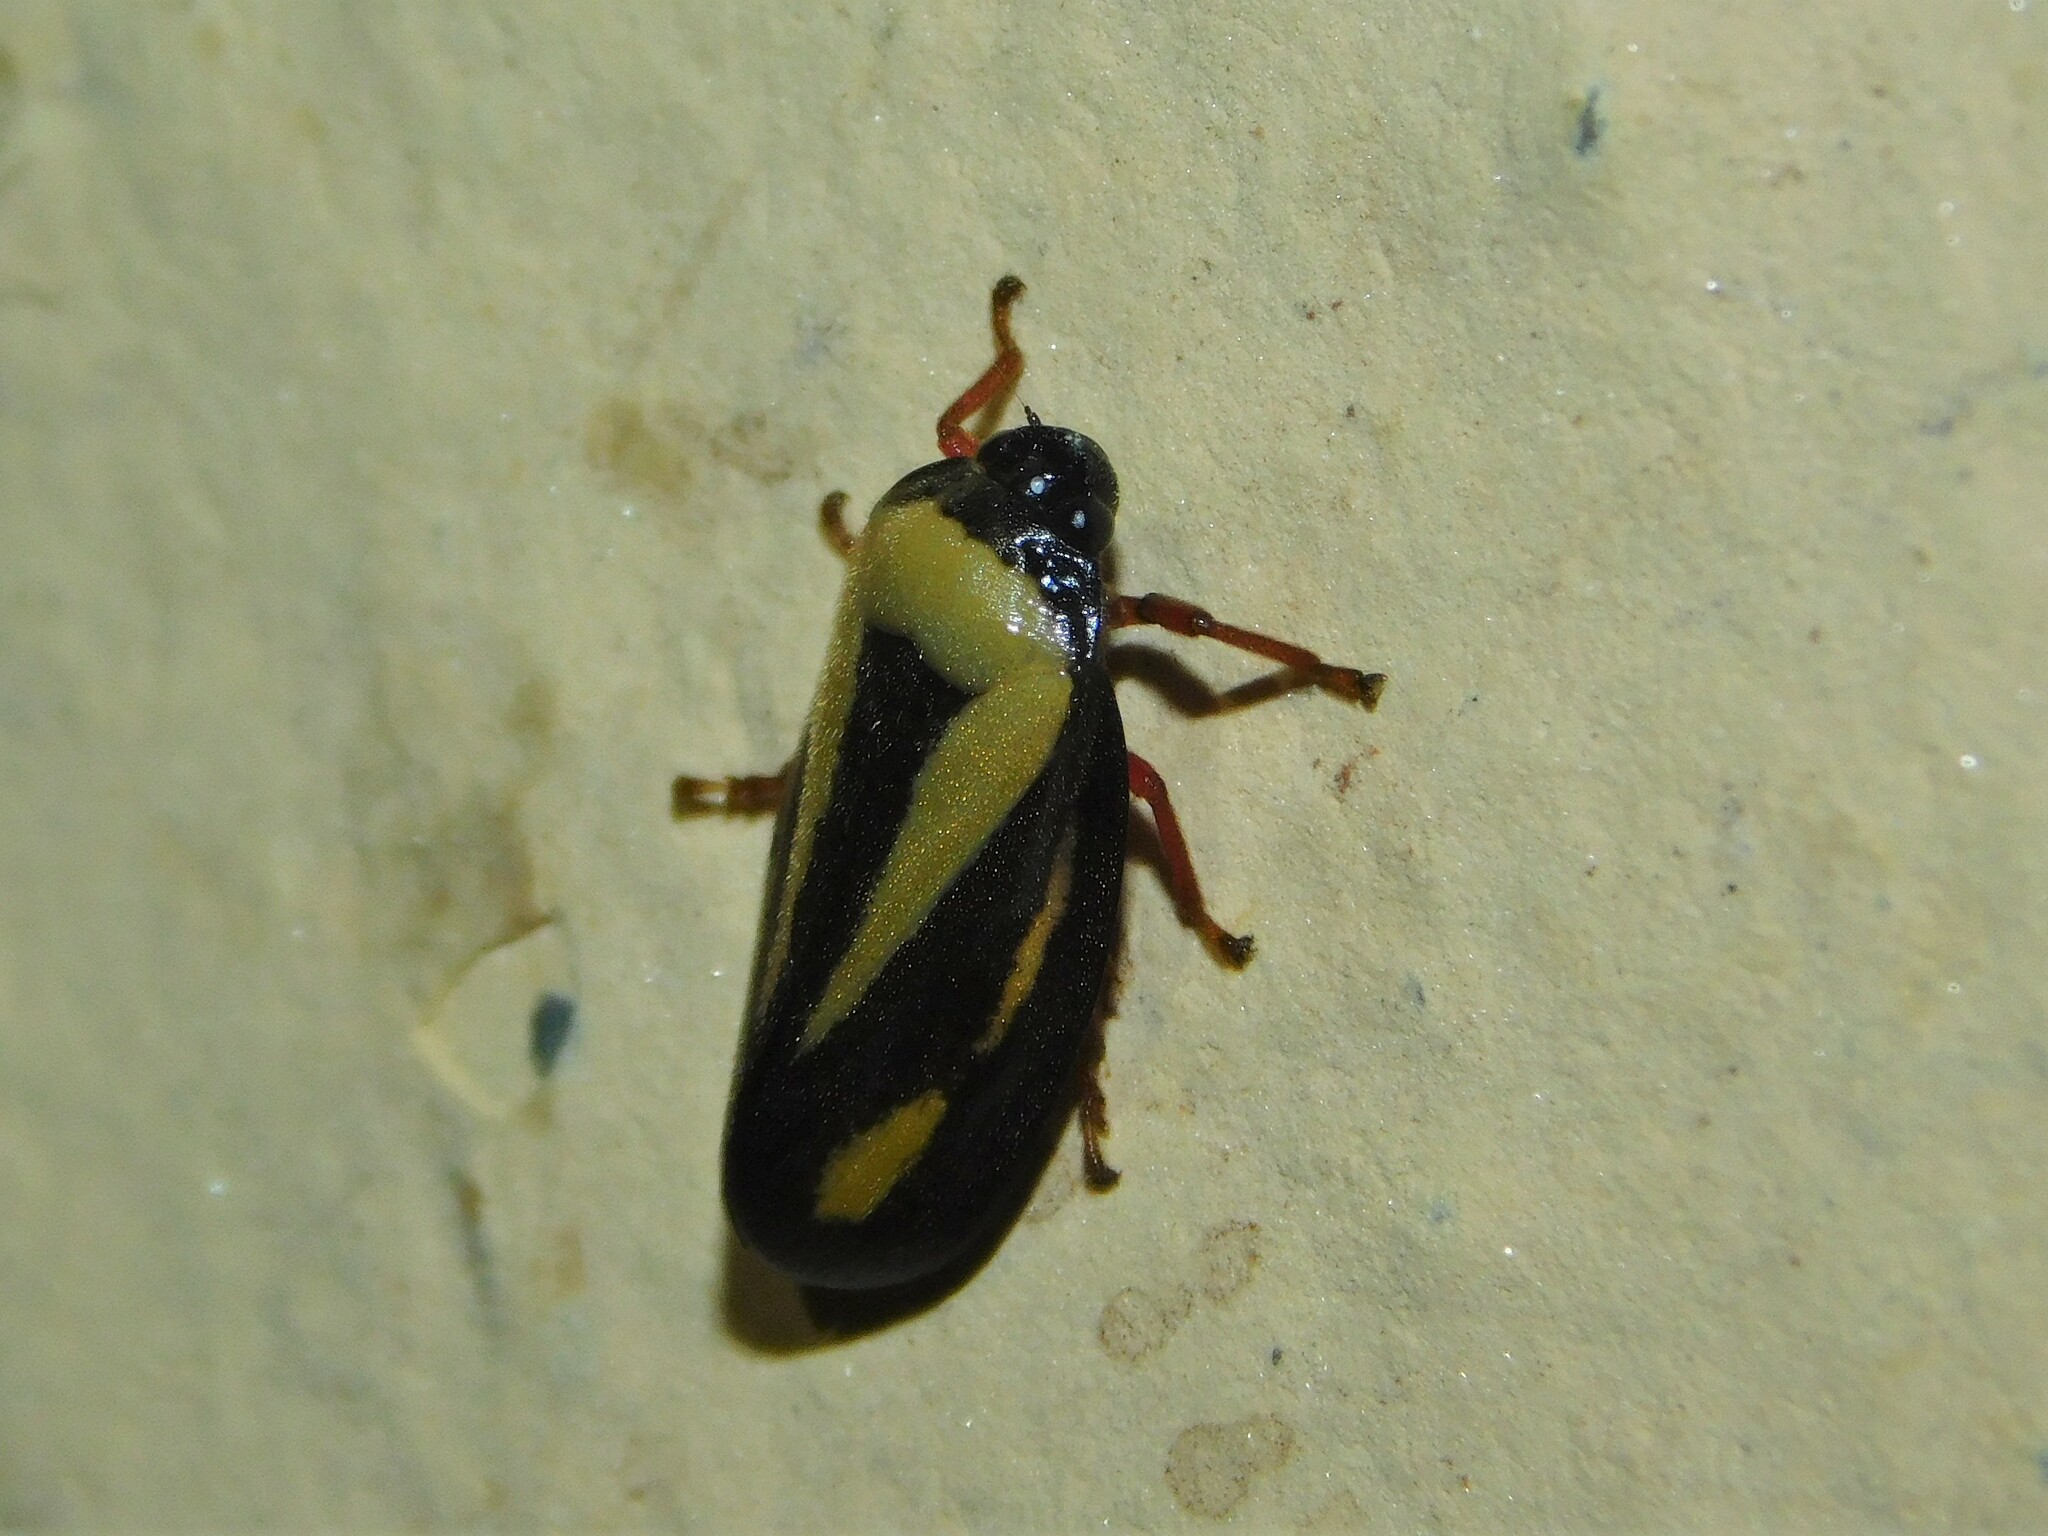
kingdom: Animalia
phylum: Arthropoda
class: Insecta
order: Hemiptera
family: Cercopidae
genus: Hemitriecphora
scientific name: Hemitriecphora haglundi
